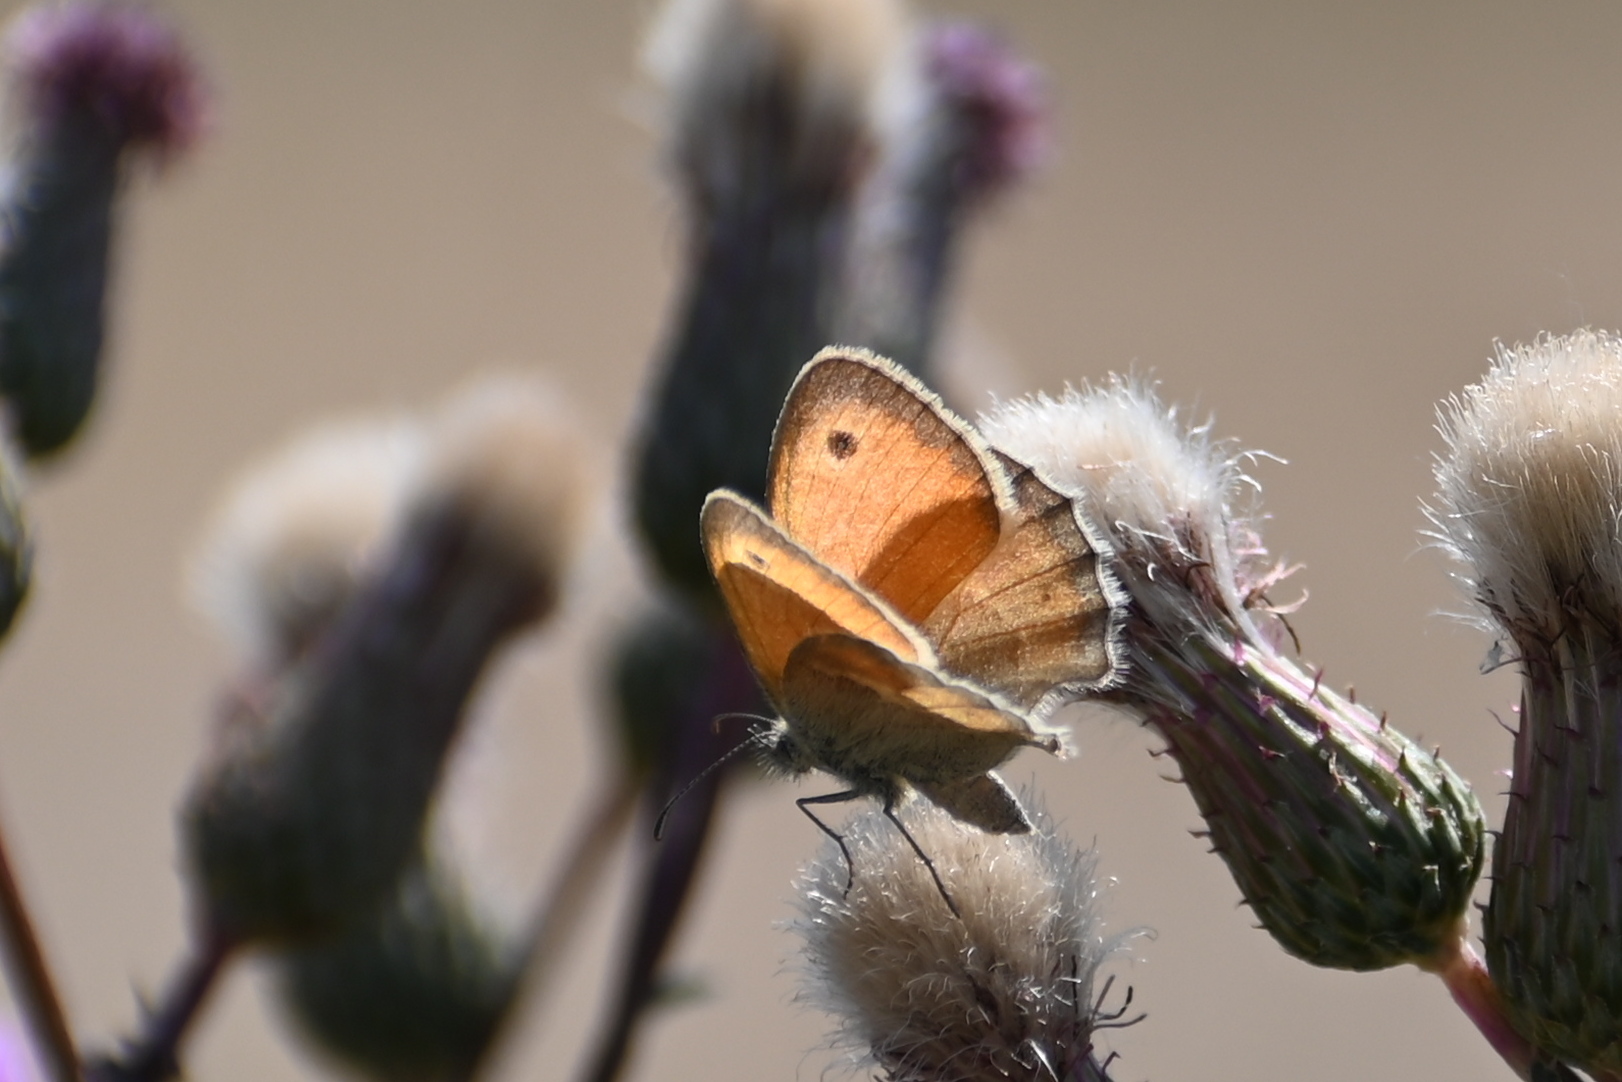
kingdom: Animalia
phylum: Arthropoda
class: Insecta
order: Lepidoptera
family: Nymphalidae
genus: Coenonympha
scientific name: Coenonympha pamphilus
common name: Small heath
